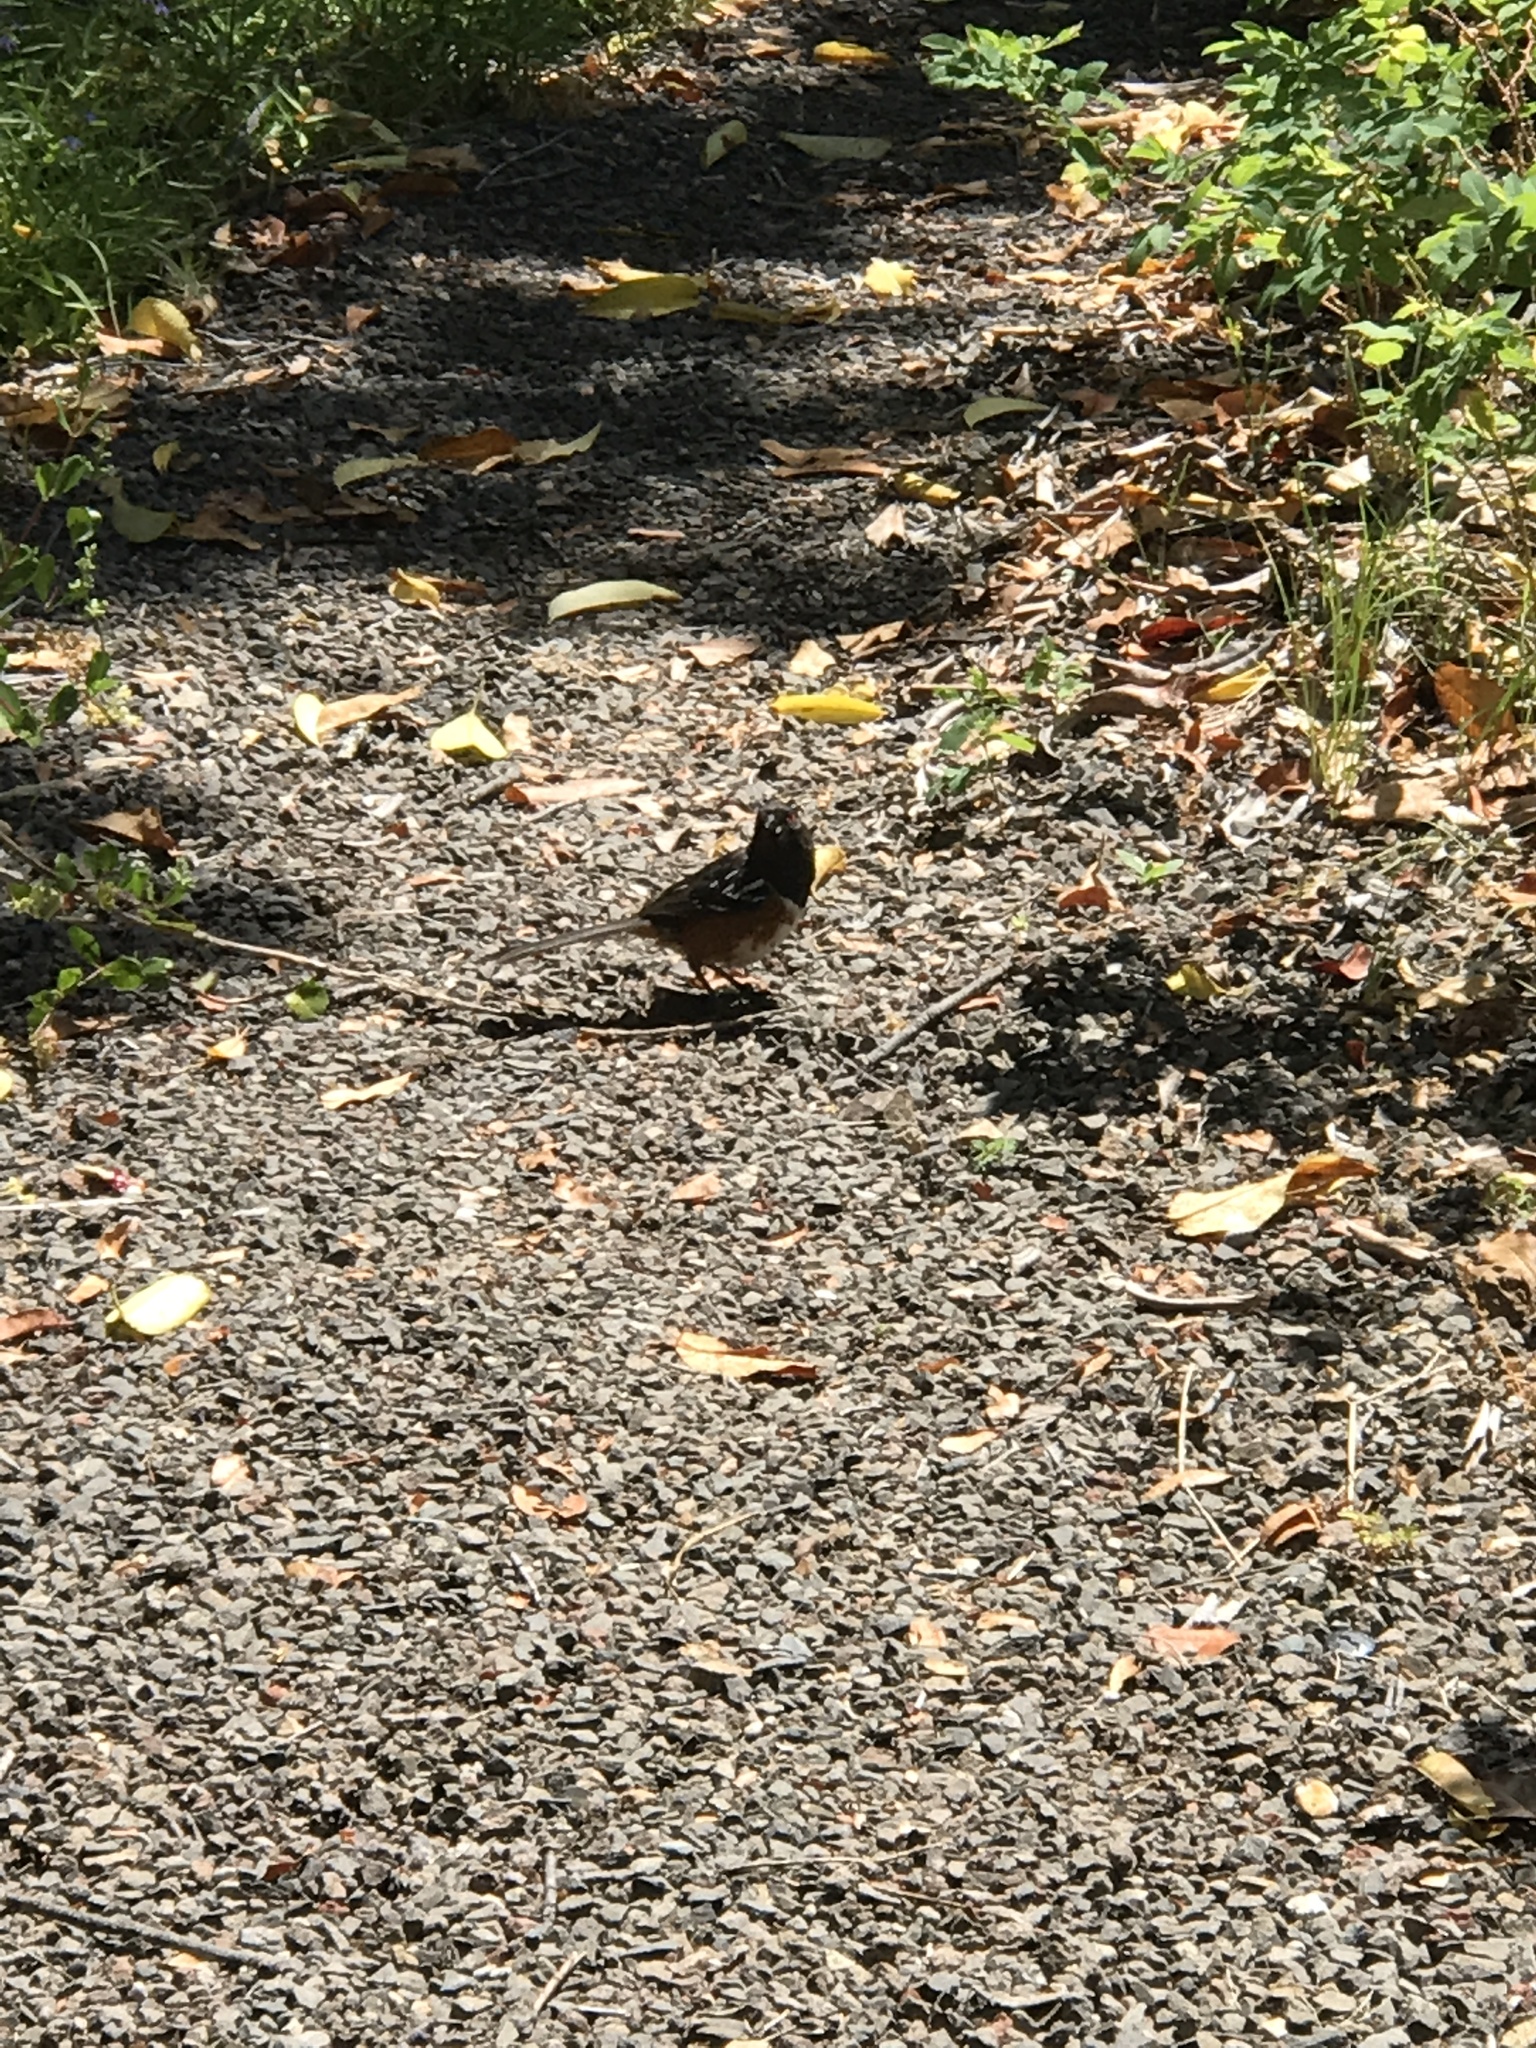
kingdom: Animalia
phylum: Chordata
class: Aves
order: Passeriformes
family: Passerellidae
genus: Pipilo
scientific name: Pipilo maculatus
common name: Spotted towhee
